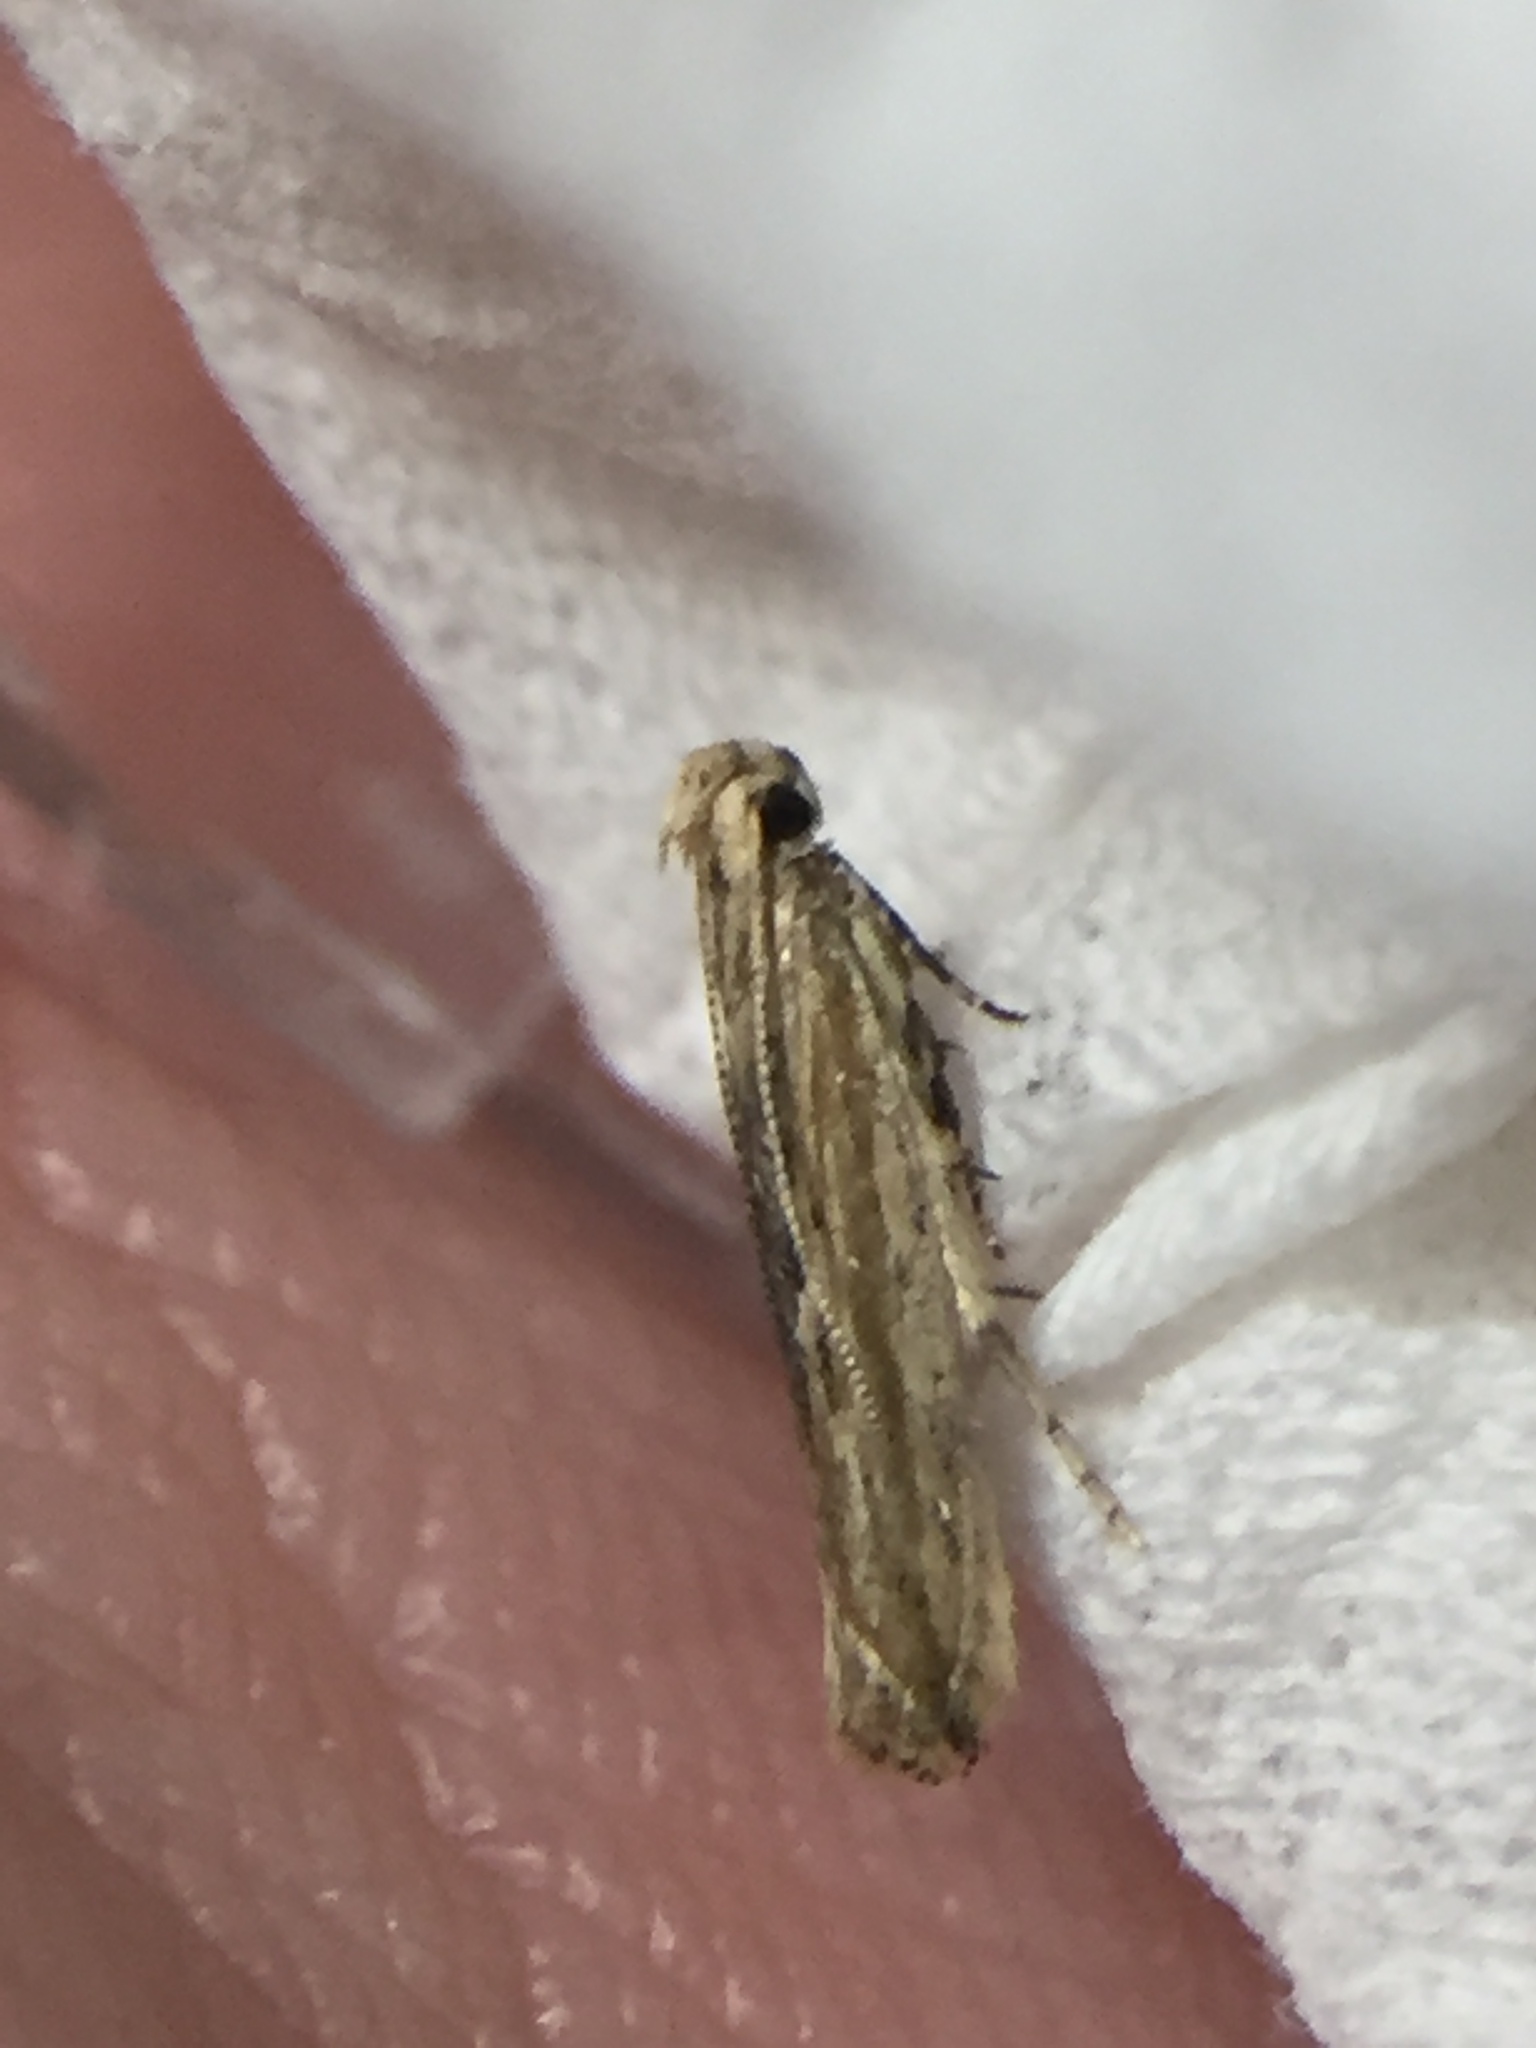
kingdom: Animalia
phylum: Arthropoda
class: Insecta
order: Lepidoptera
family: Gelechiidae
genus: Symmetrischema
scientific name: Symmetrischema striatella
